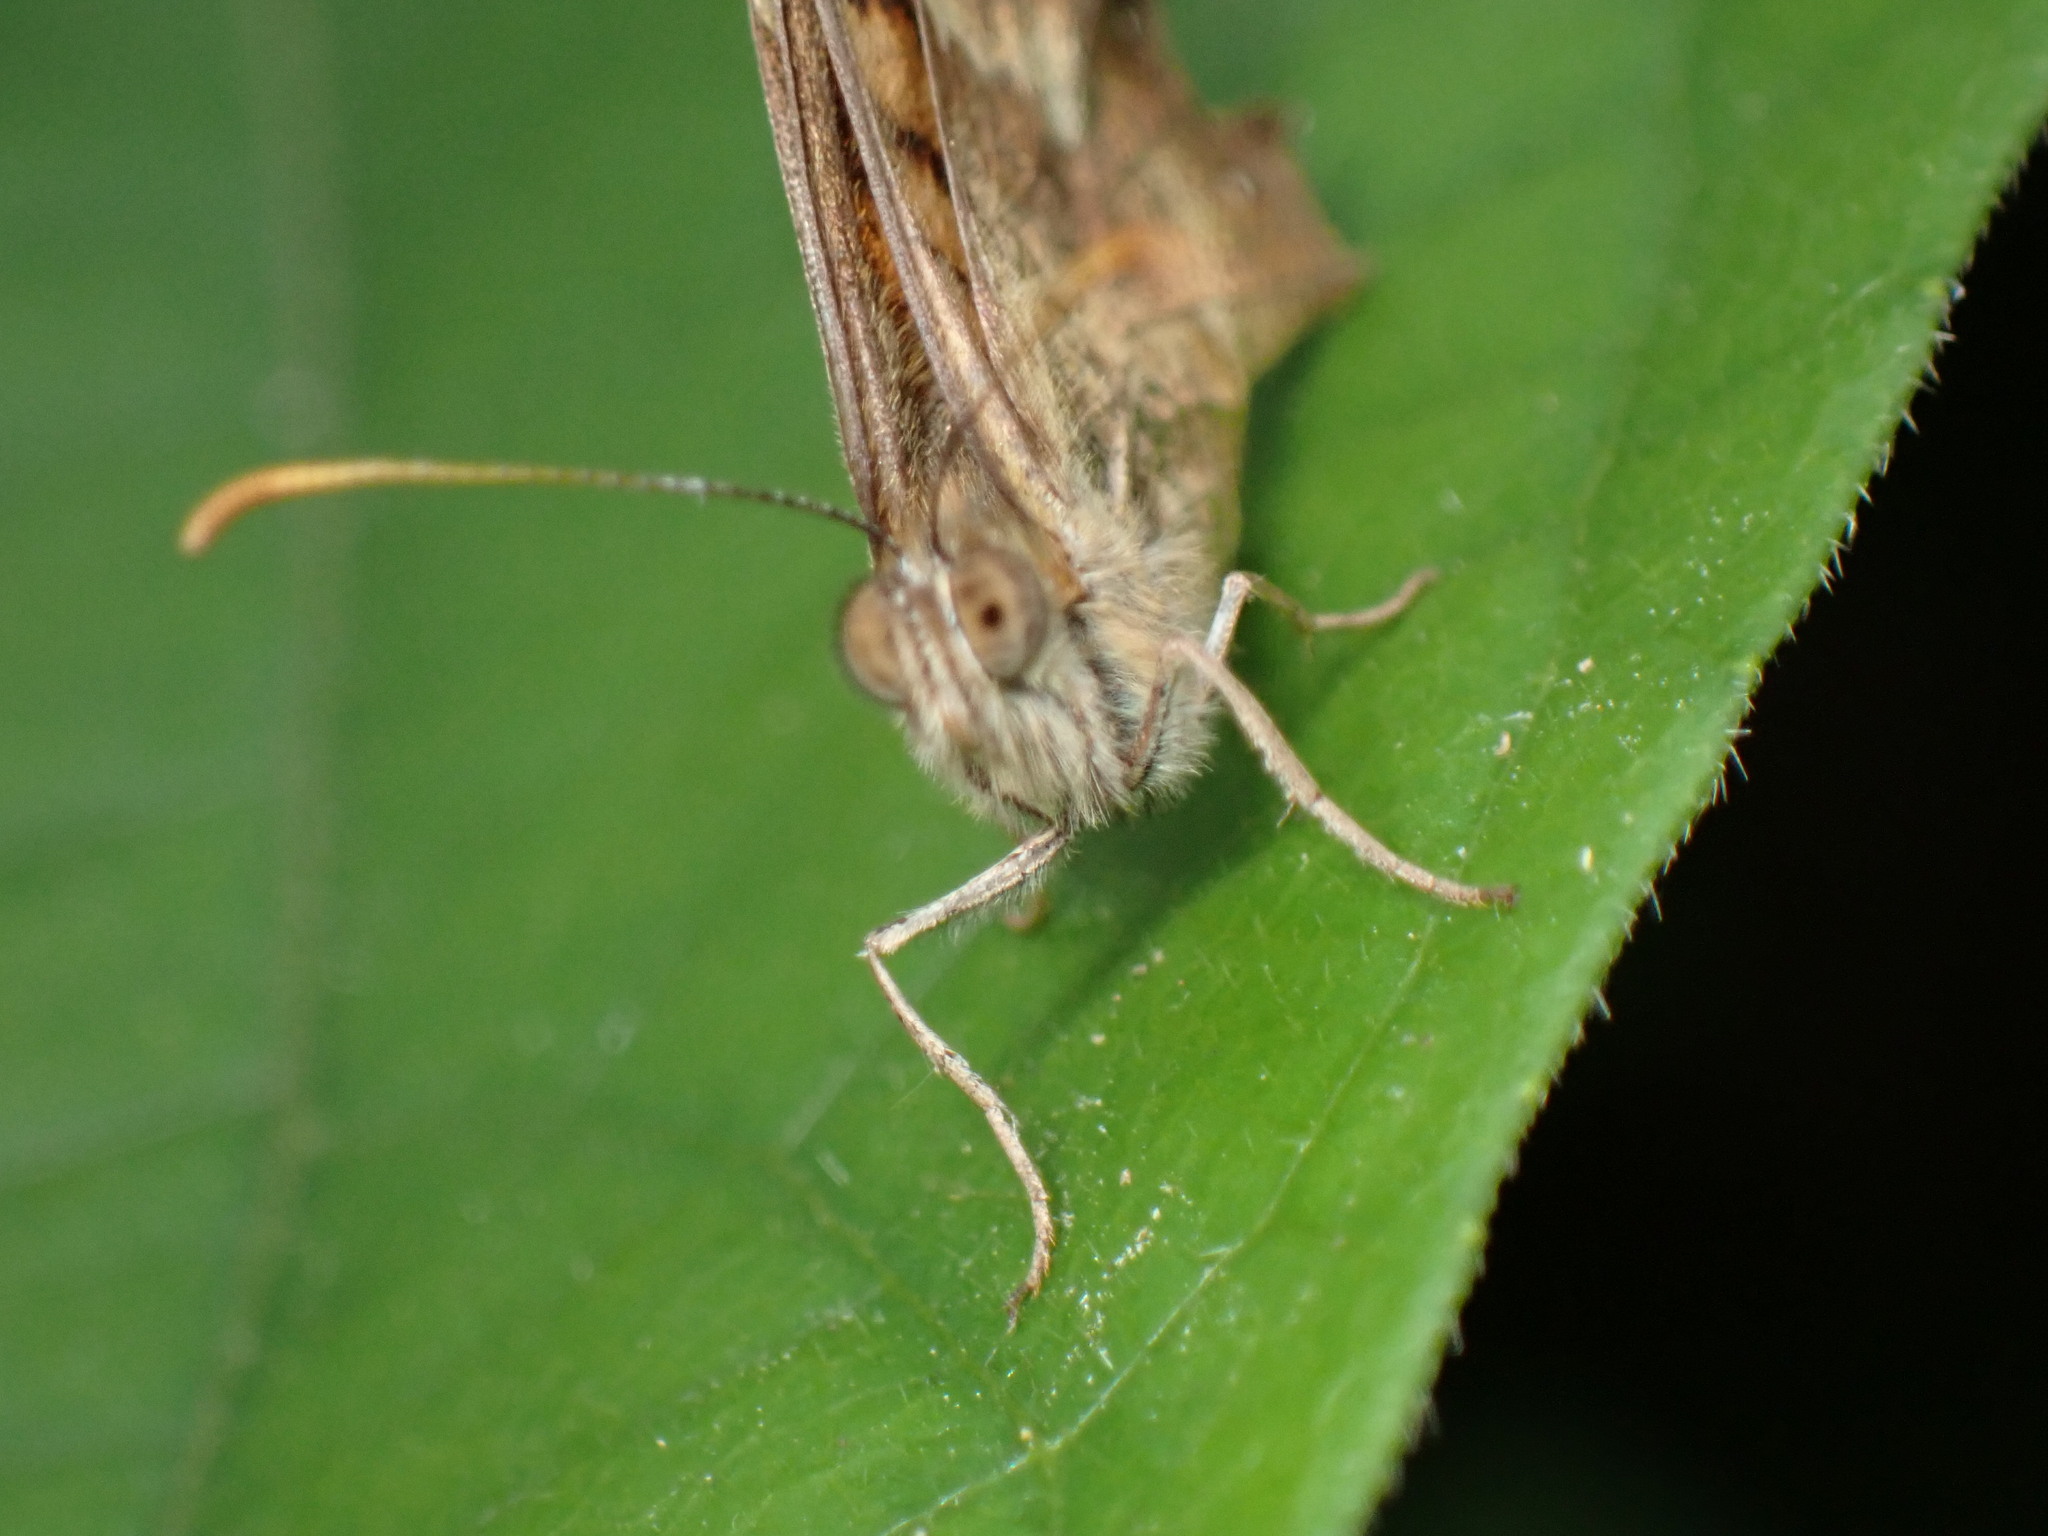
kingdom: Animalia
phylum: Arthropoda
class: Insecta
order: Lepidoptera
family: Nymphalidae
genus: Pararge
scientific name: Pararge aegeria
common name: Speckled wood
